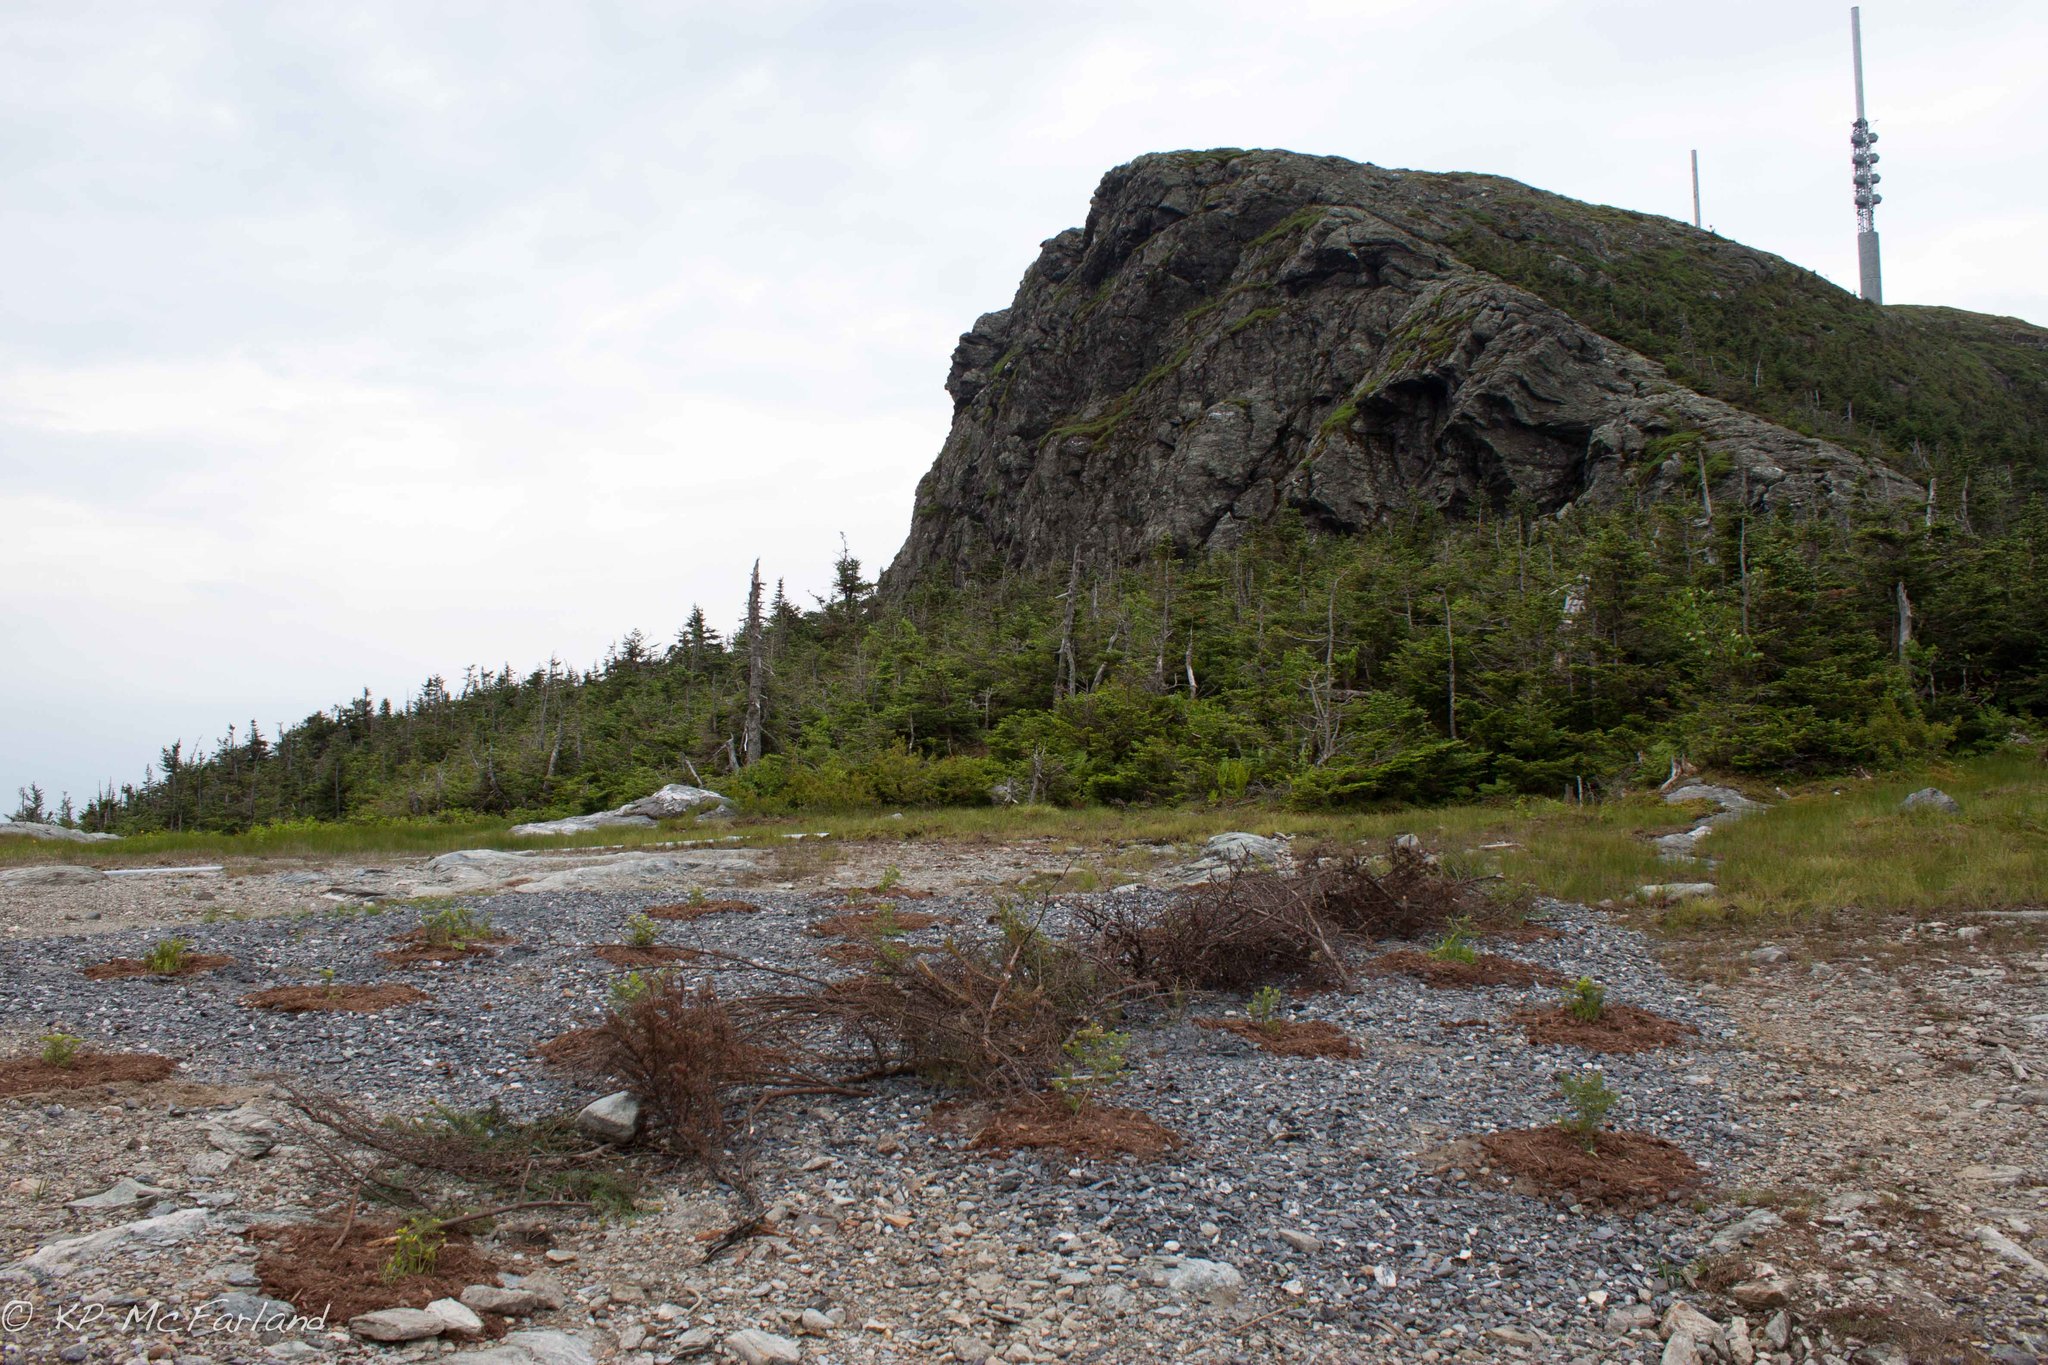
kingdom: Plantae
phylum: Tracheophyta
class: Pinopsida
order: Pinales
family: Pinaceae
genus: Abies
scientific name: Abies balsamea
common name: Balsam fir
